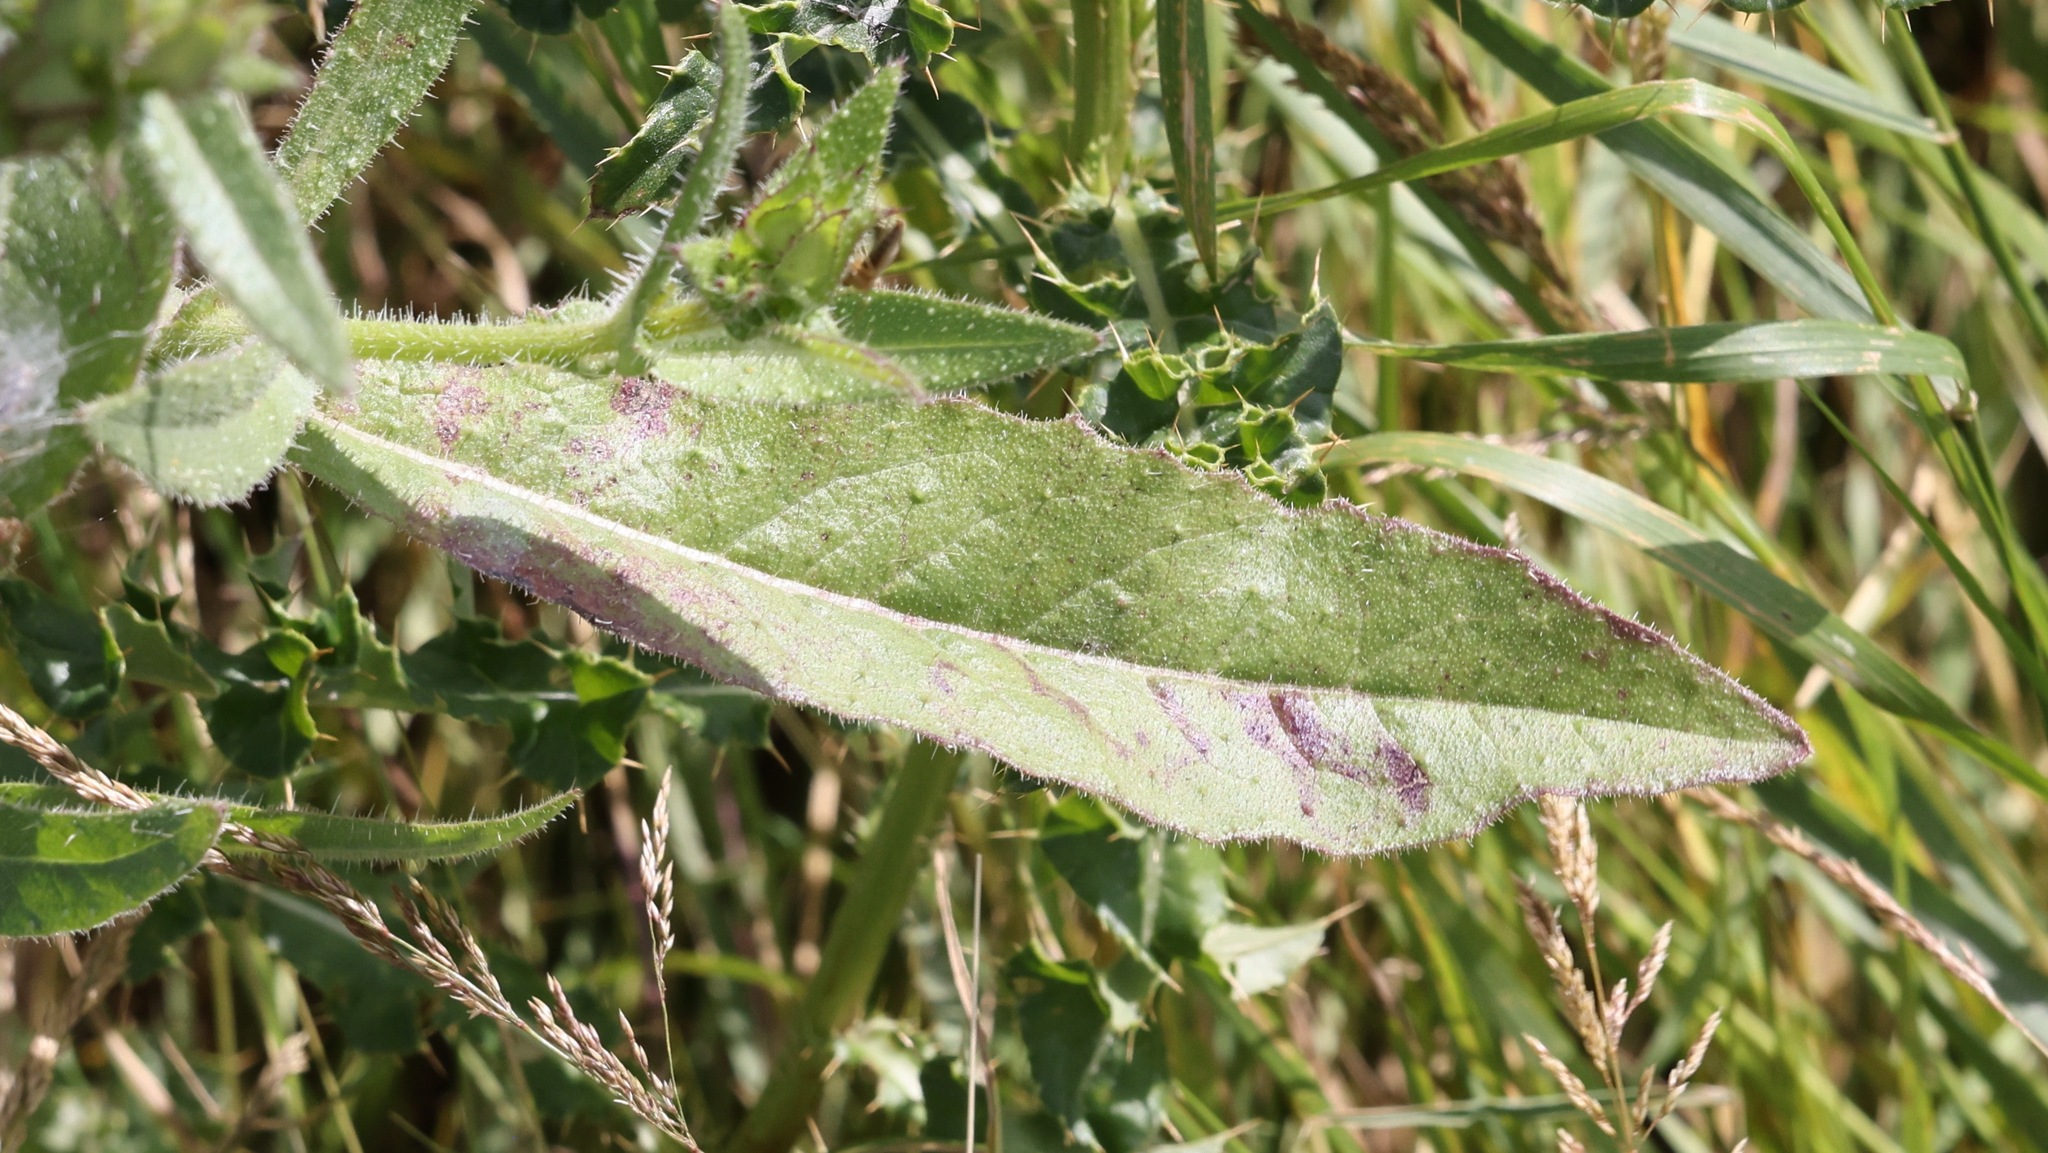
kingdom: Plantae
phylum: Tracheophyta
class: Magnoliopsida
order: Asterales
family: Asteraceae
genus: Helminthotheca
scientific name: Helminthotheca echioides
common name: Ox-tongue
